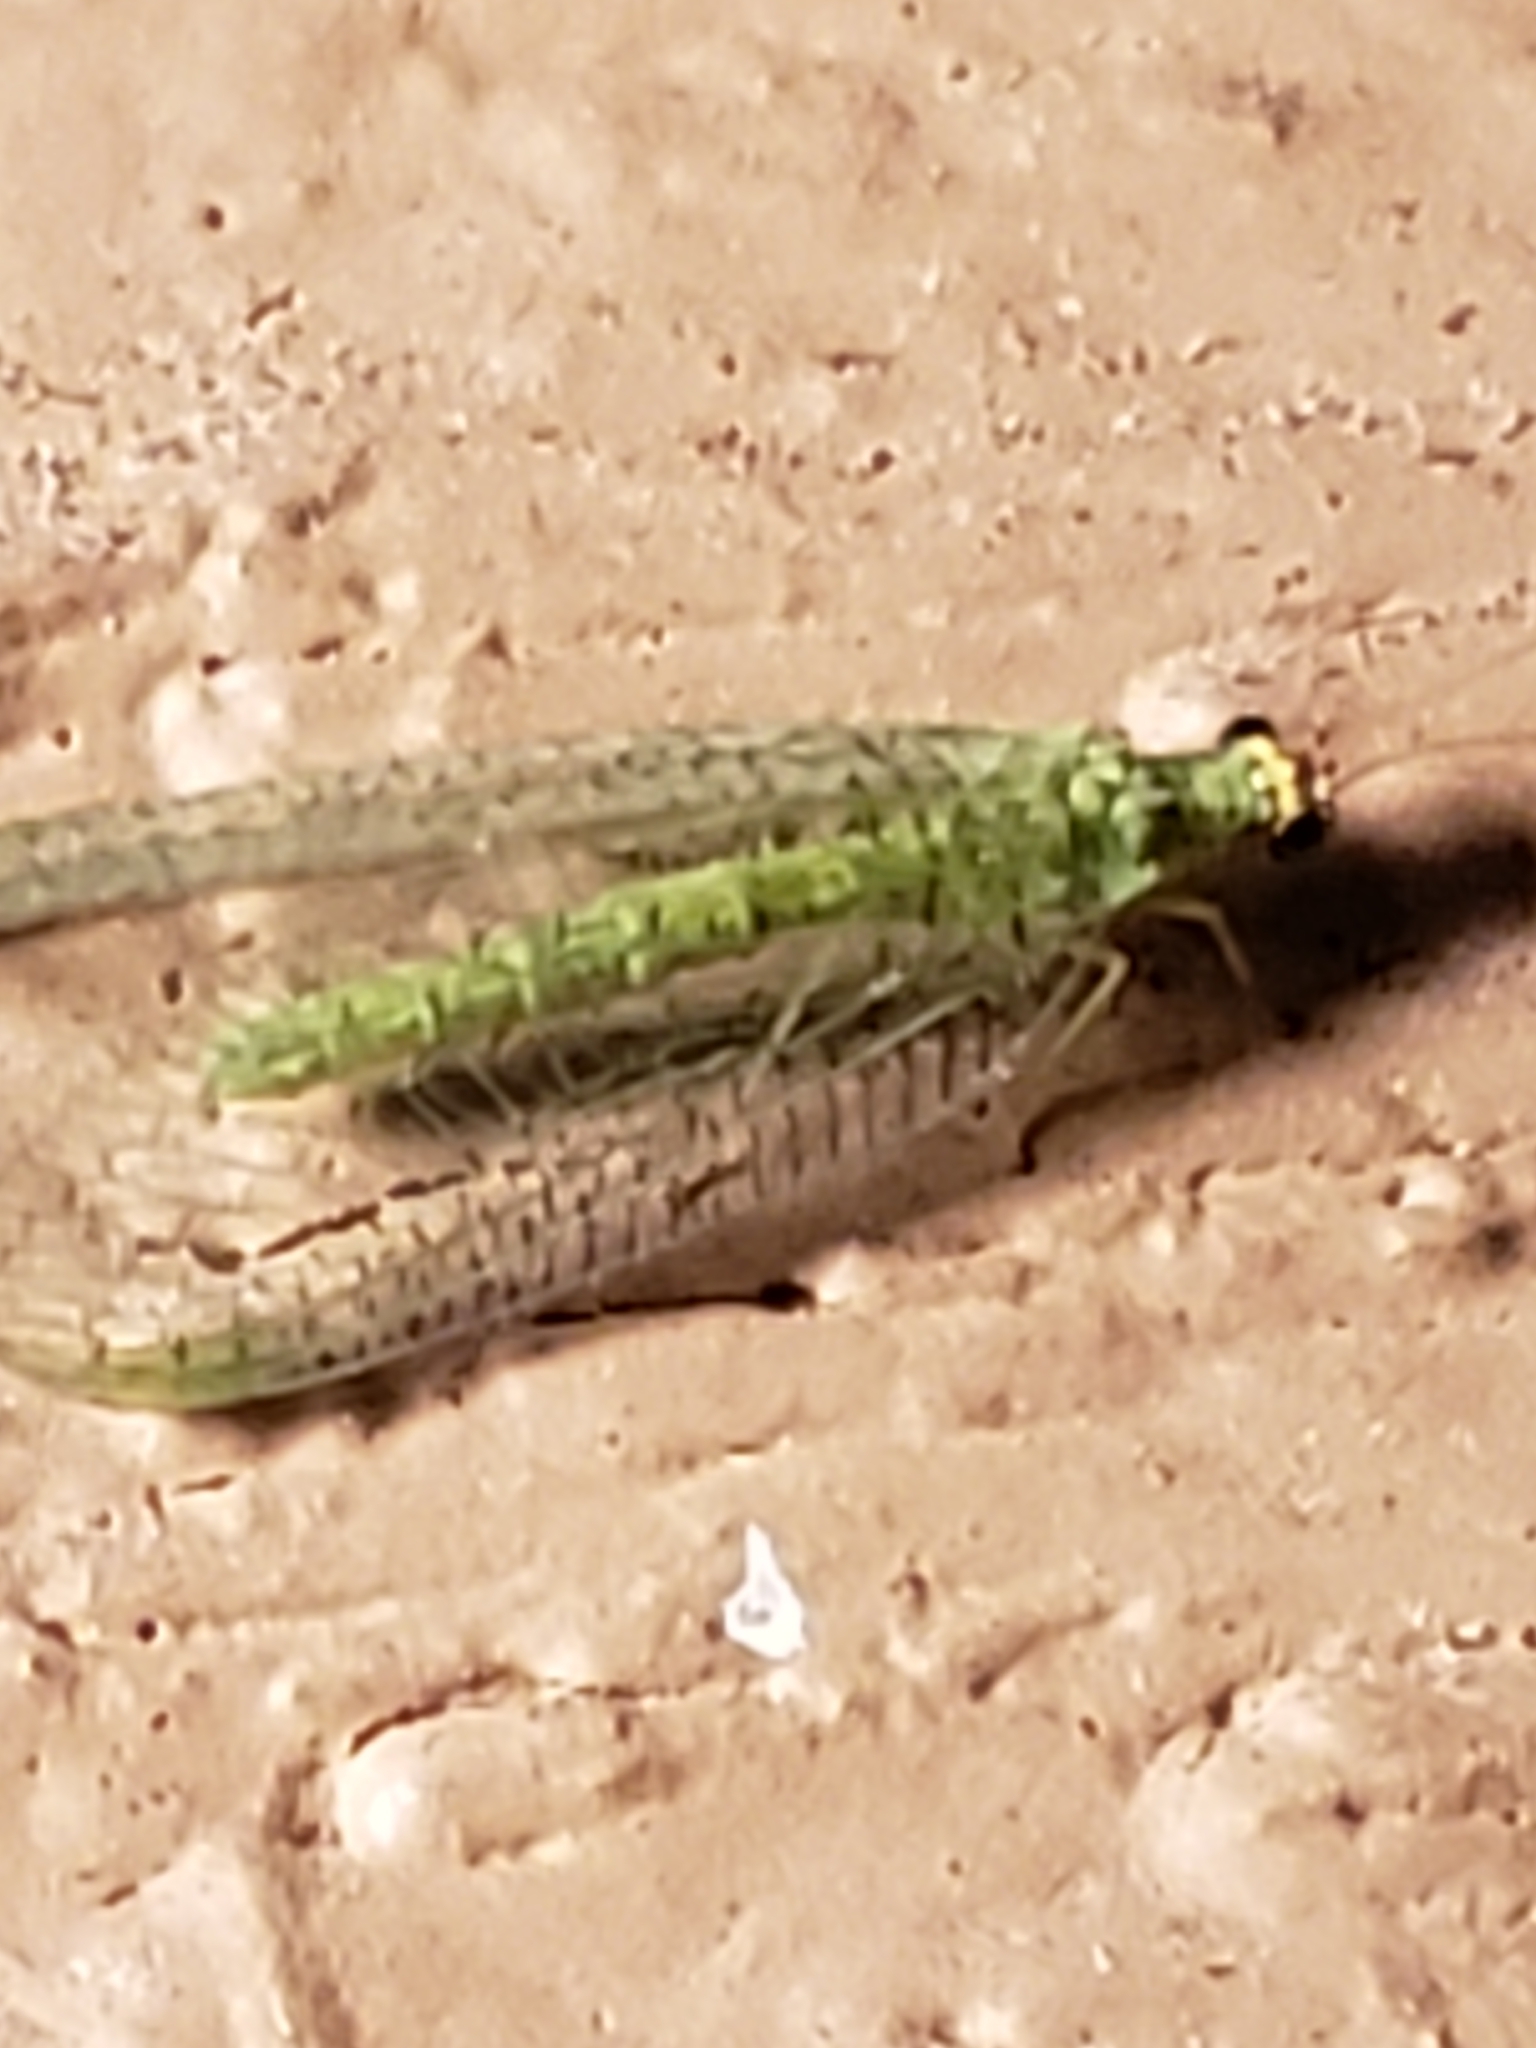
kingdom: Animalia
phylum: Arthropoda
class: Insecta
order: Neuroptera
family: Chrysopidae
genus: Chrysopa
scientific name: Chrysopa oculata
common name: Golden-eyed lacewing
